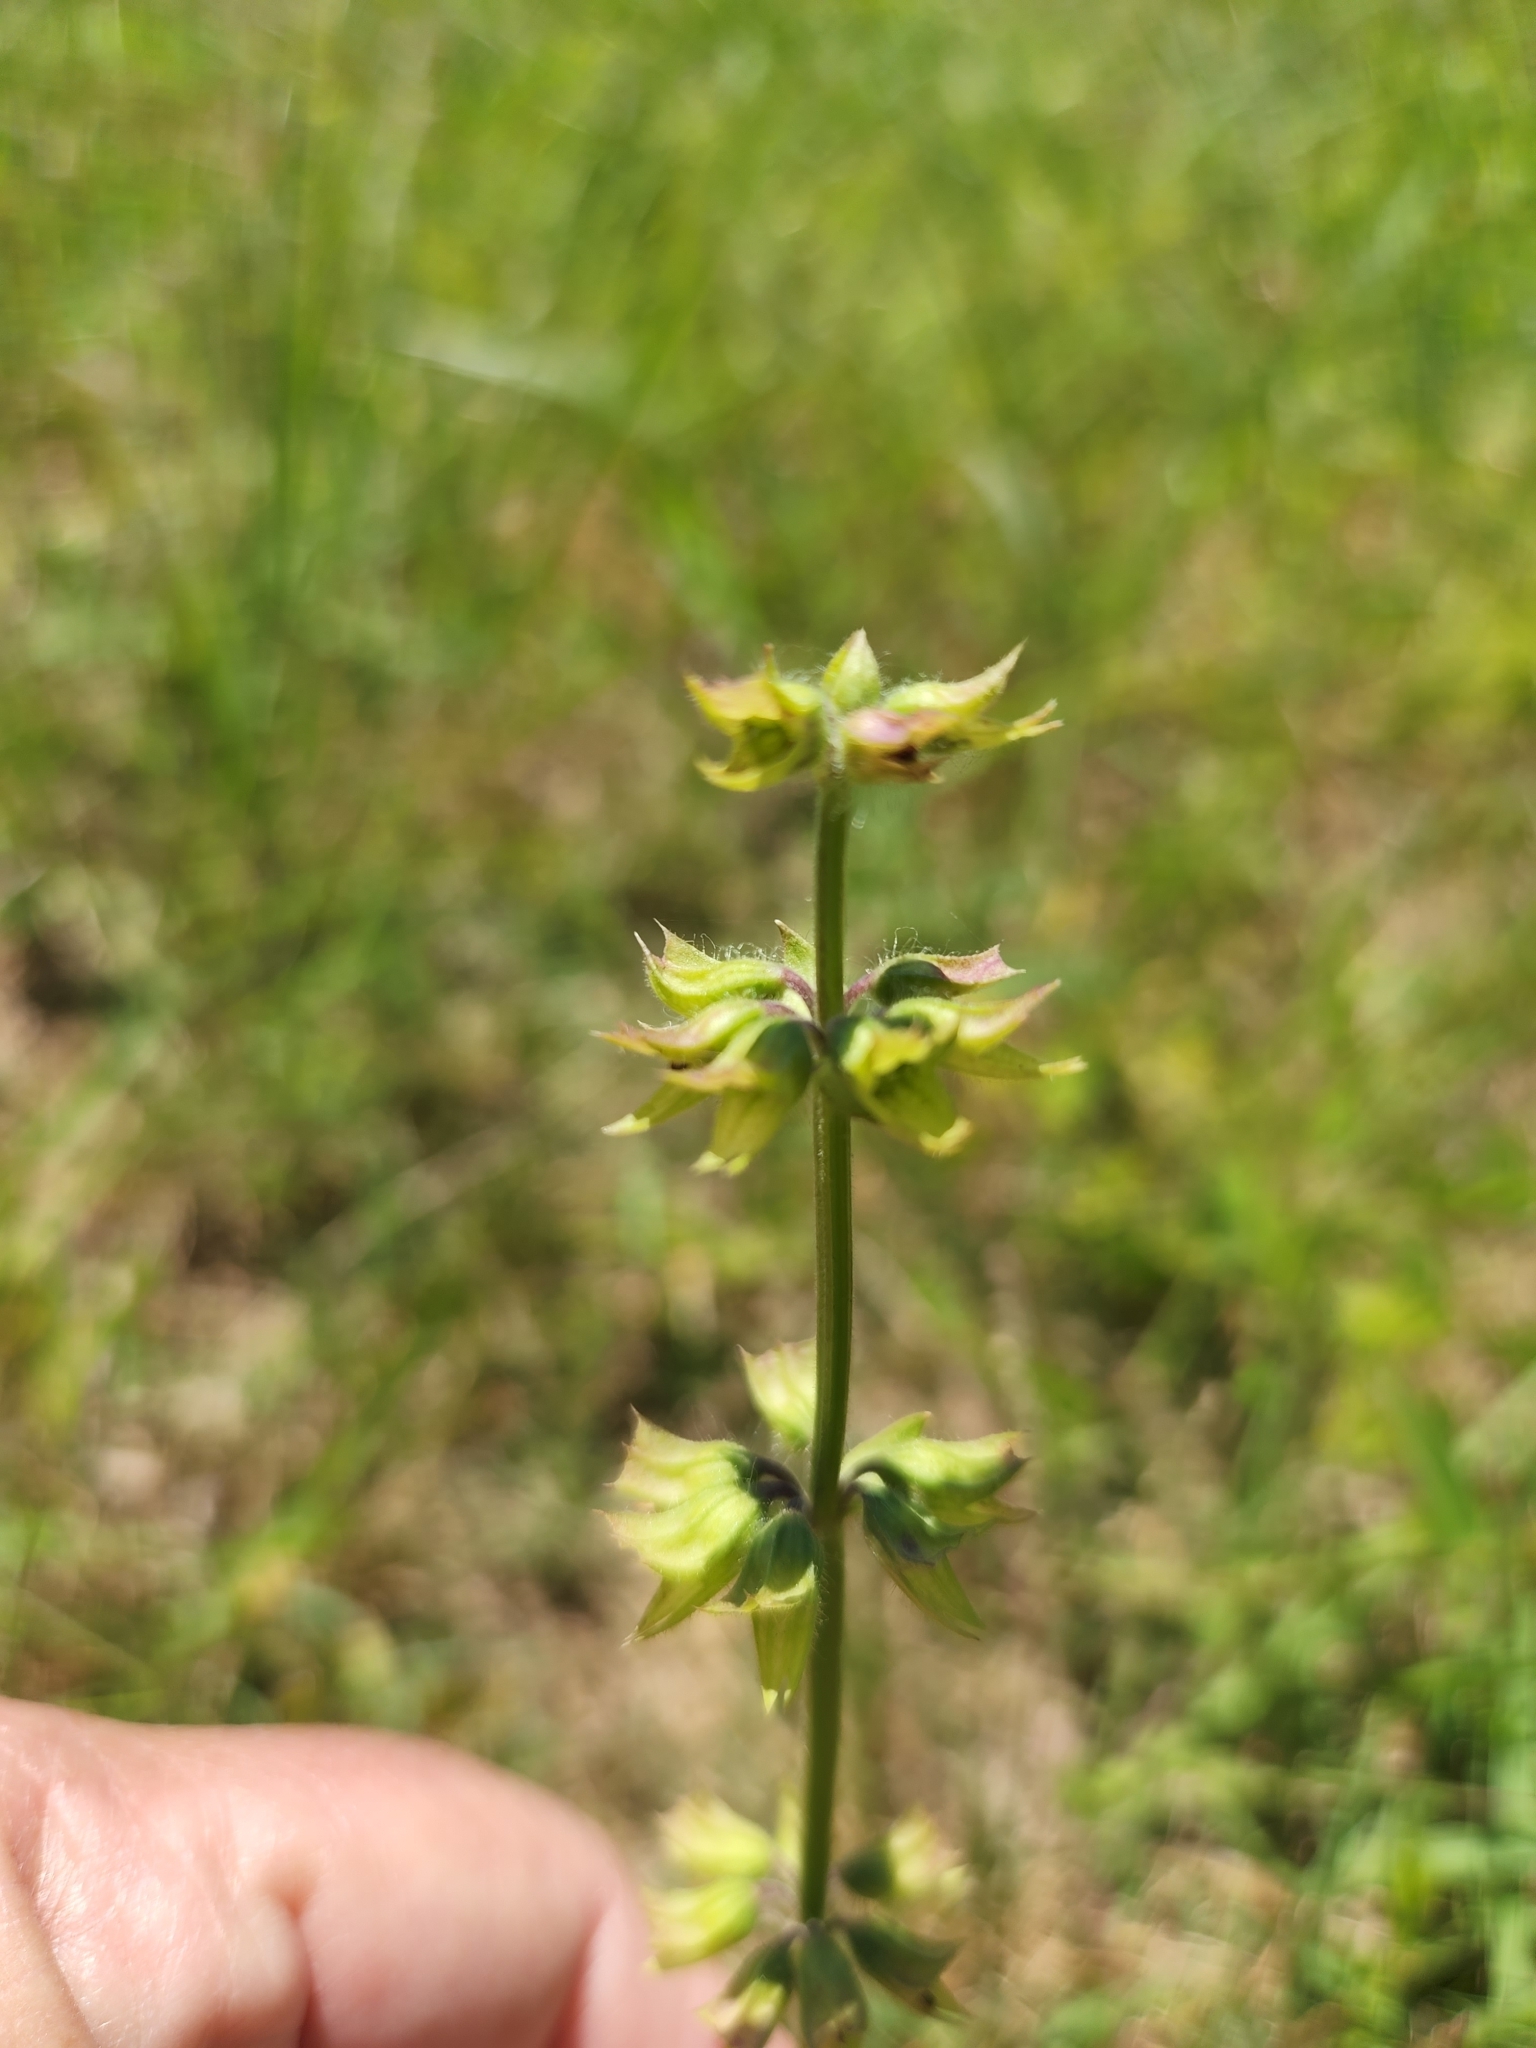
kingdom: Plantae
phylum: Tracheophyta
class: Magnoliopsida
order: Lamiales
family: Lamiaceae
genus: Salvia
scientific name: Salvia lyrata
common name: Cancerweed
